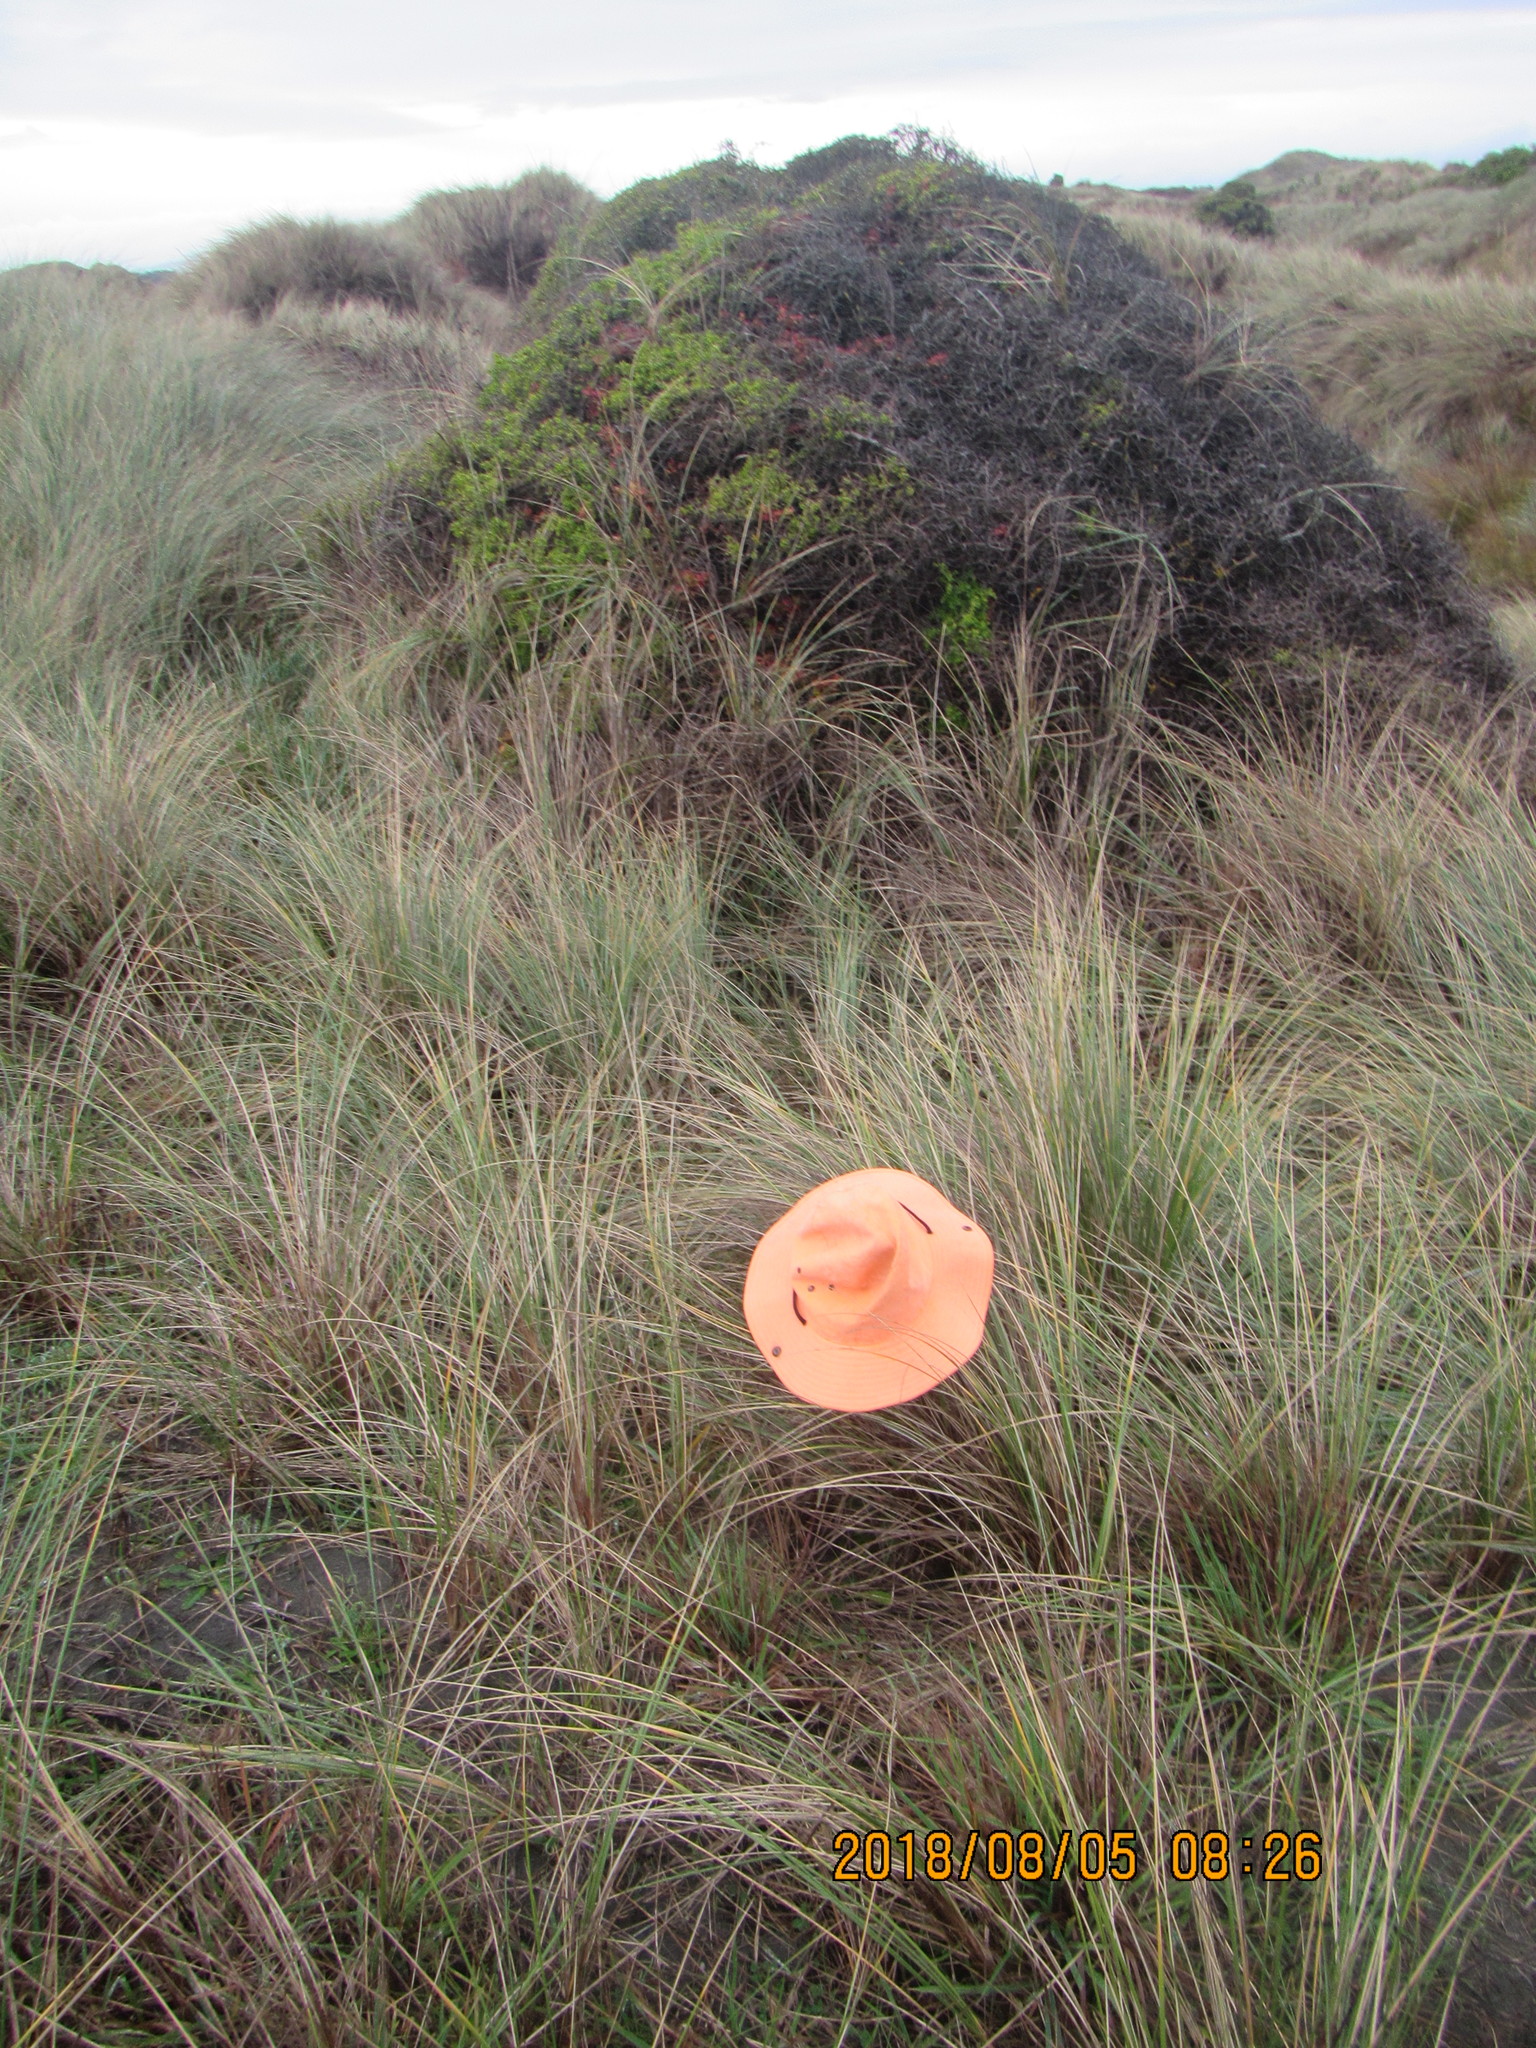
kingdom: Plantae
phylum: Tracheophyta
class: Liliopsida
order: Poales
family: Poaceae
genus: Lachnagrostis
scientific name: Lachnagrostis billardierei
